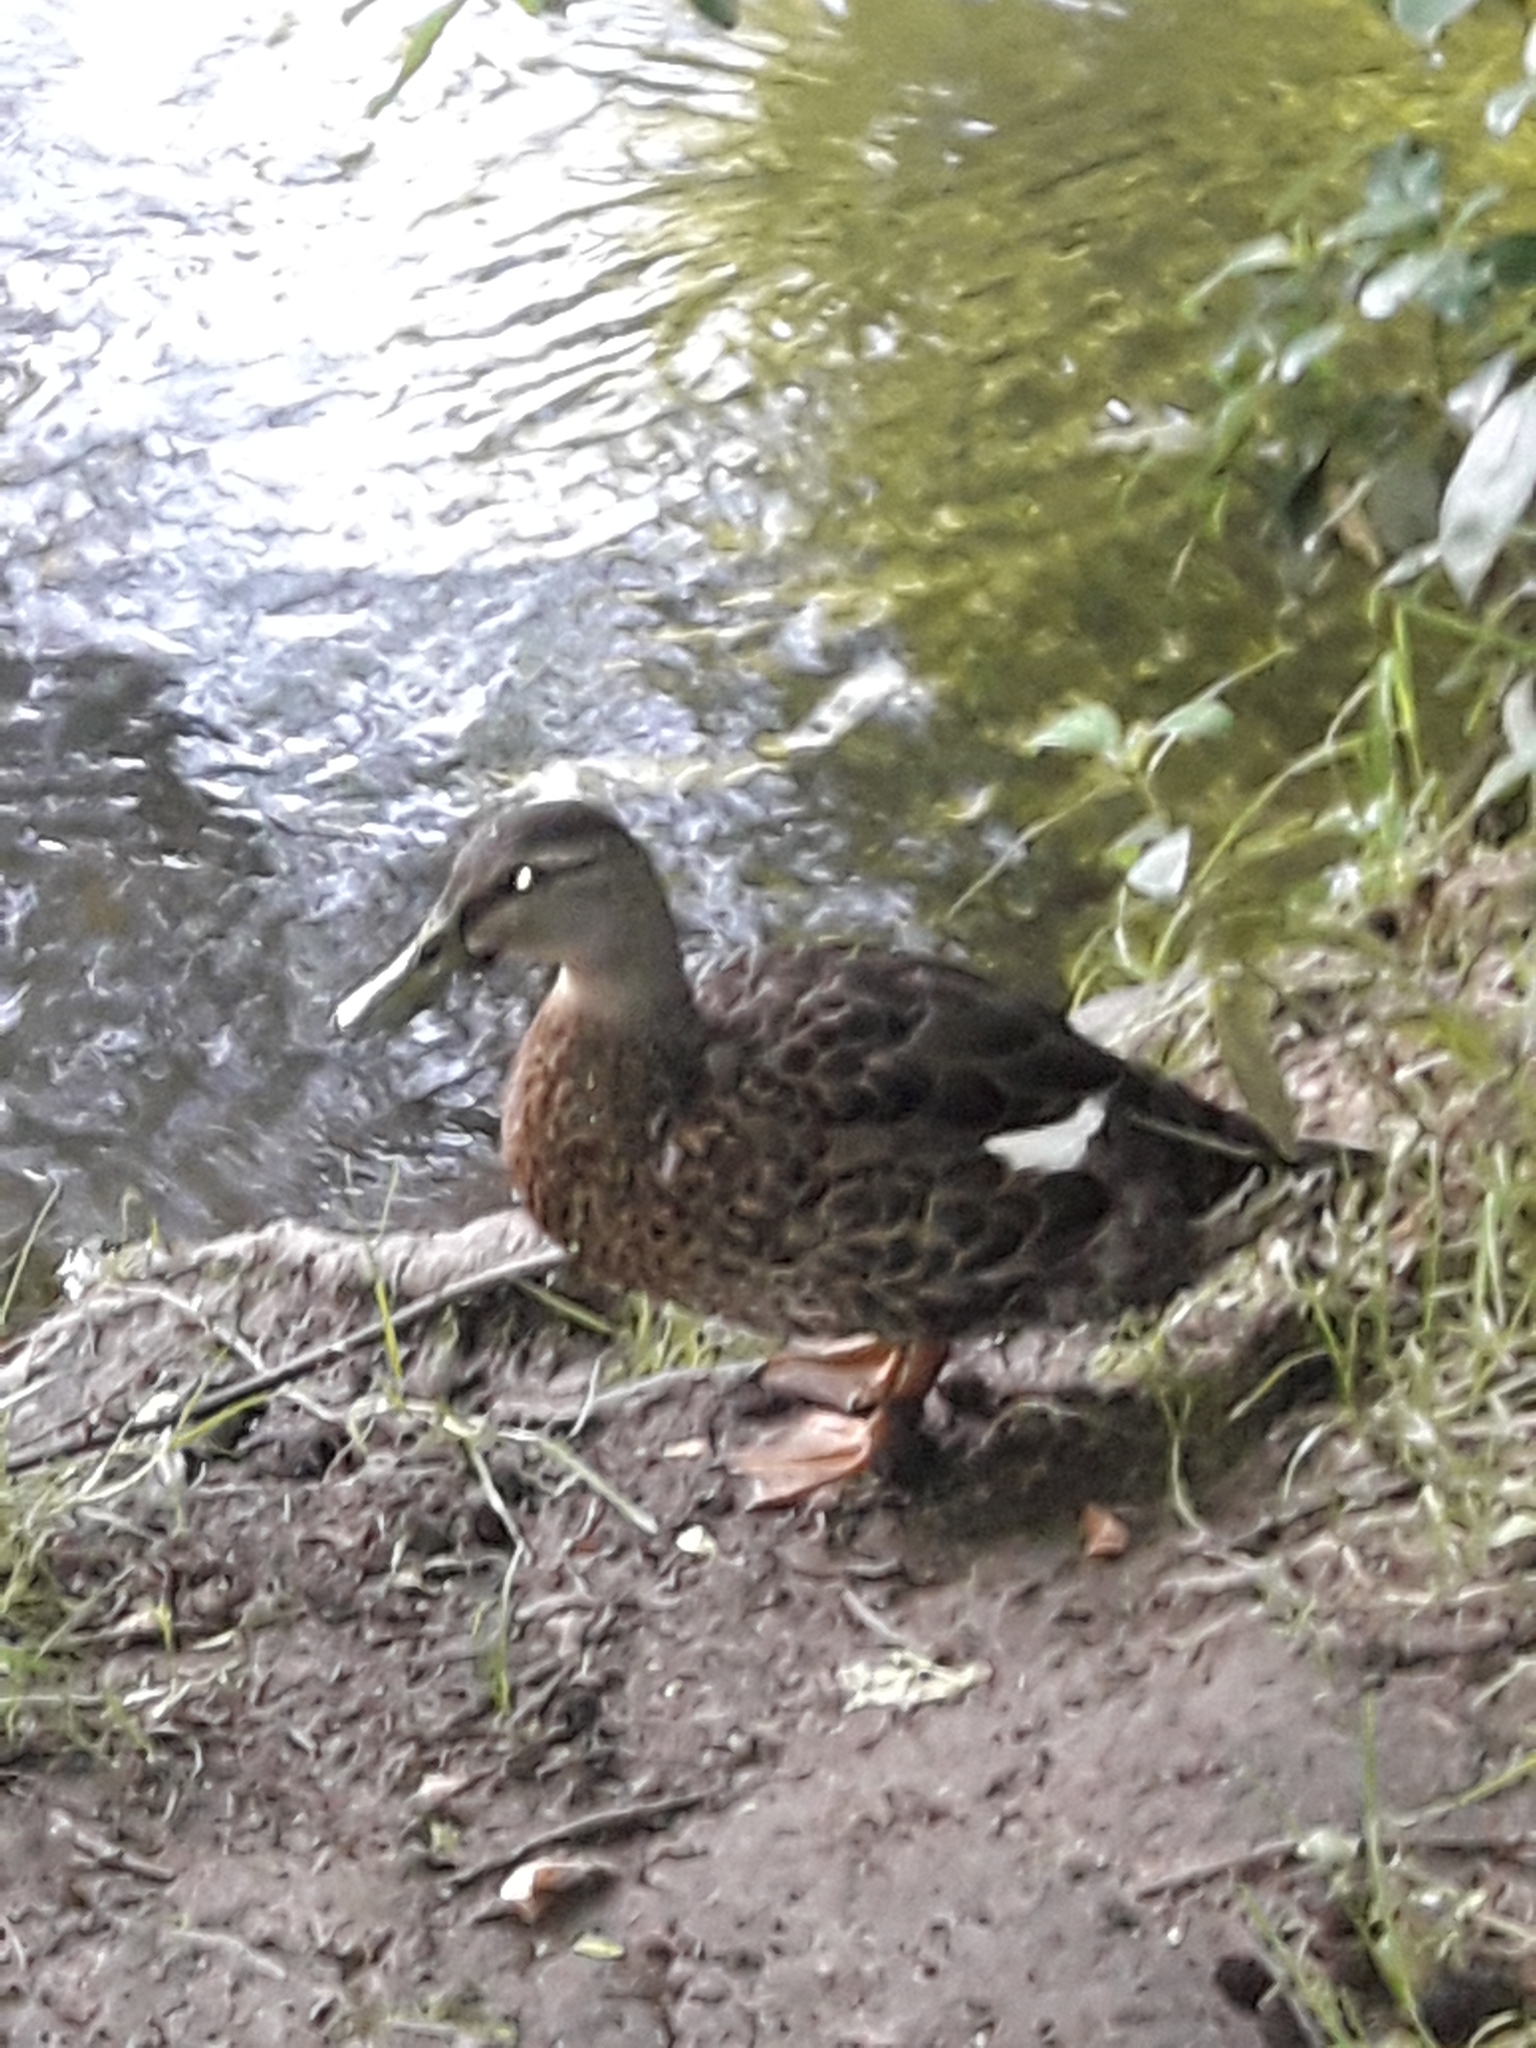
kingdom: Animalia
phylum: Chordata
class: Aves
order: Anseriformes
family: Anatidae
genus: Anas
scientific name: Anas
